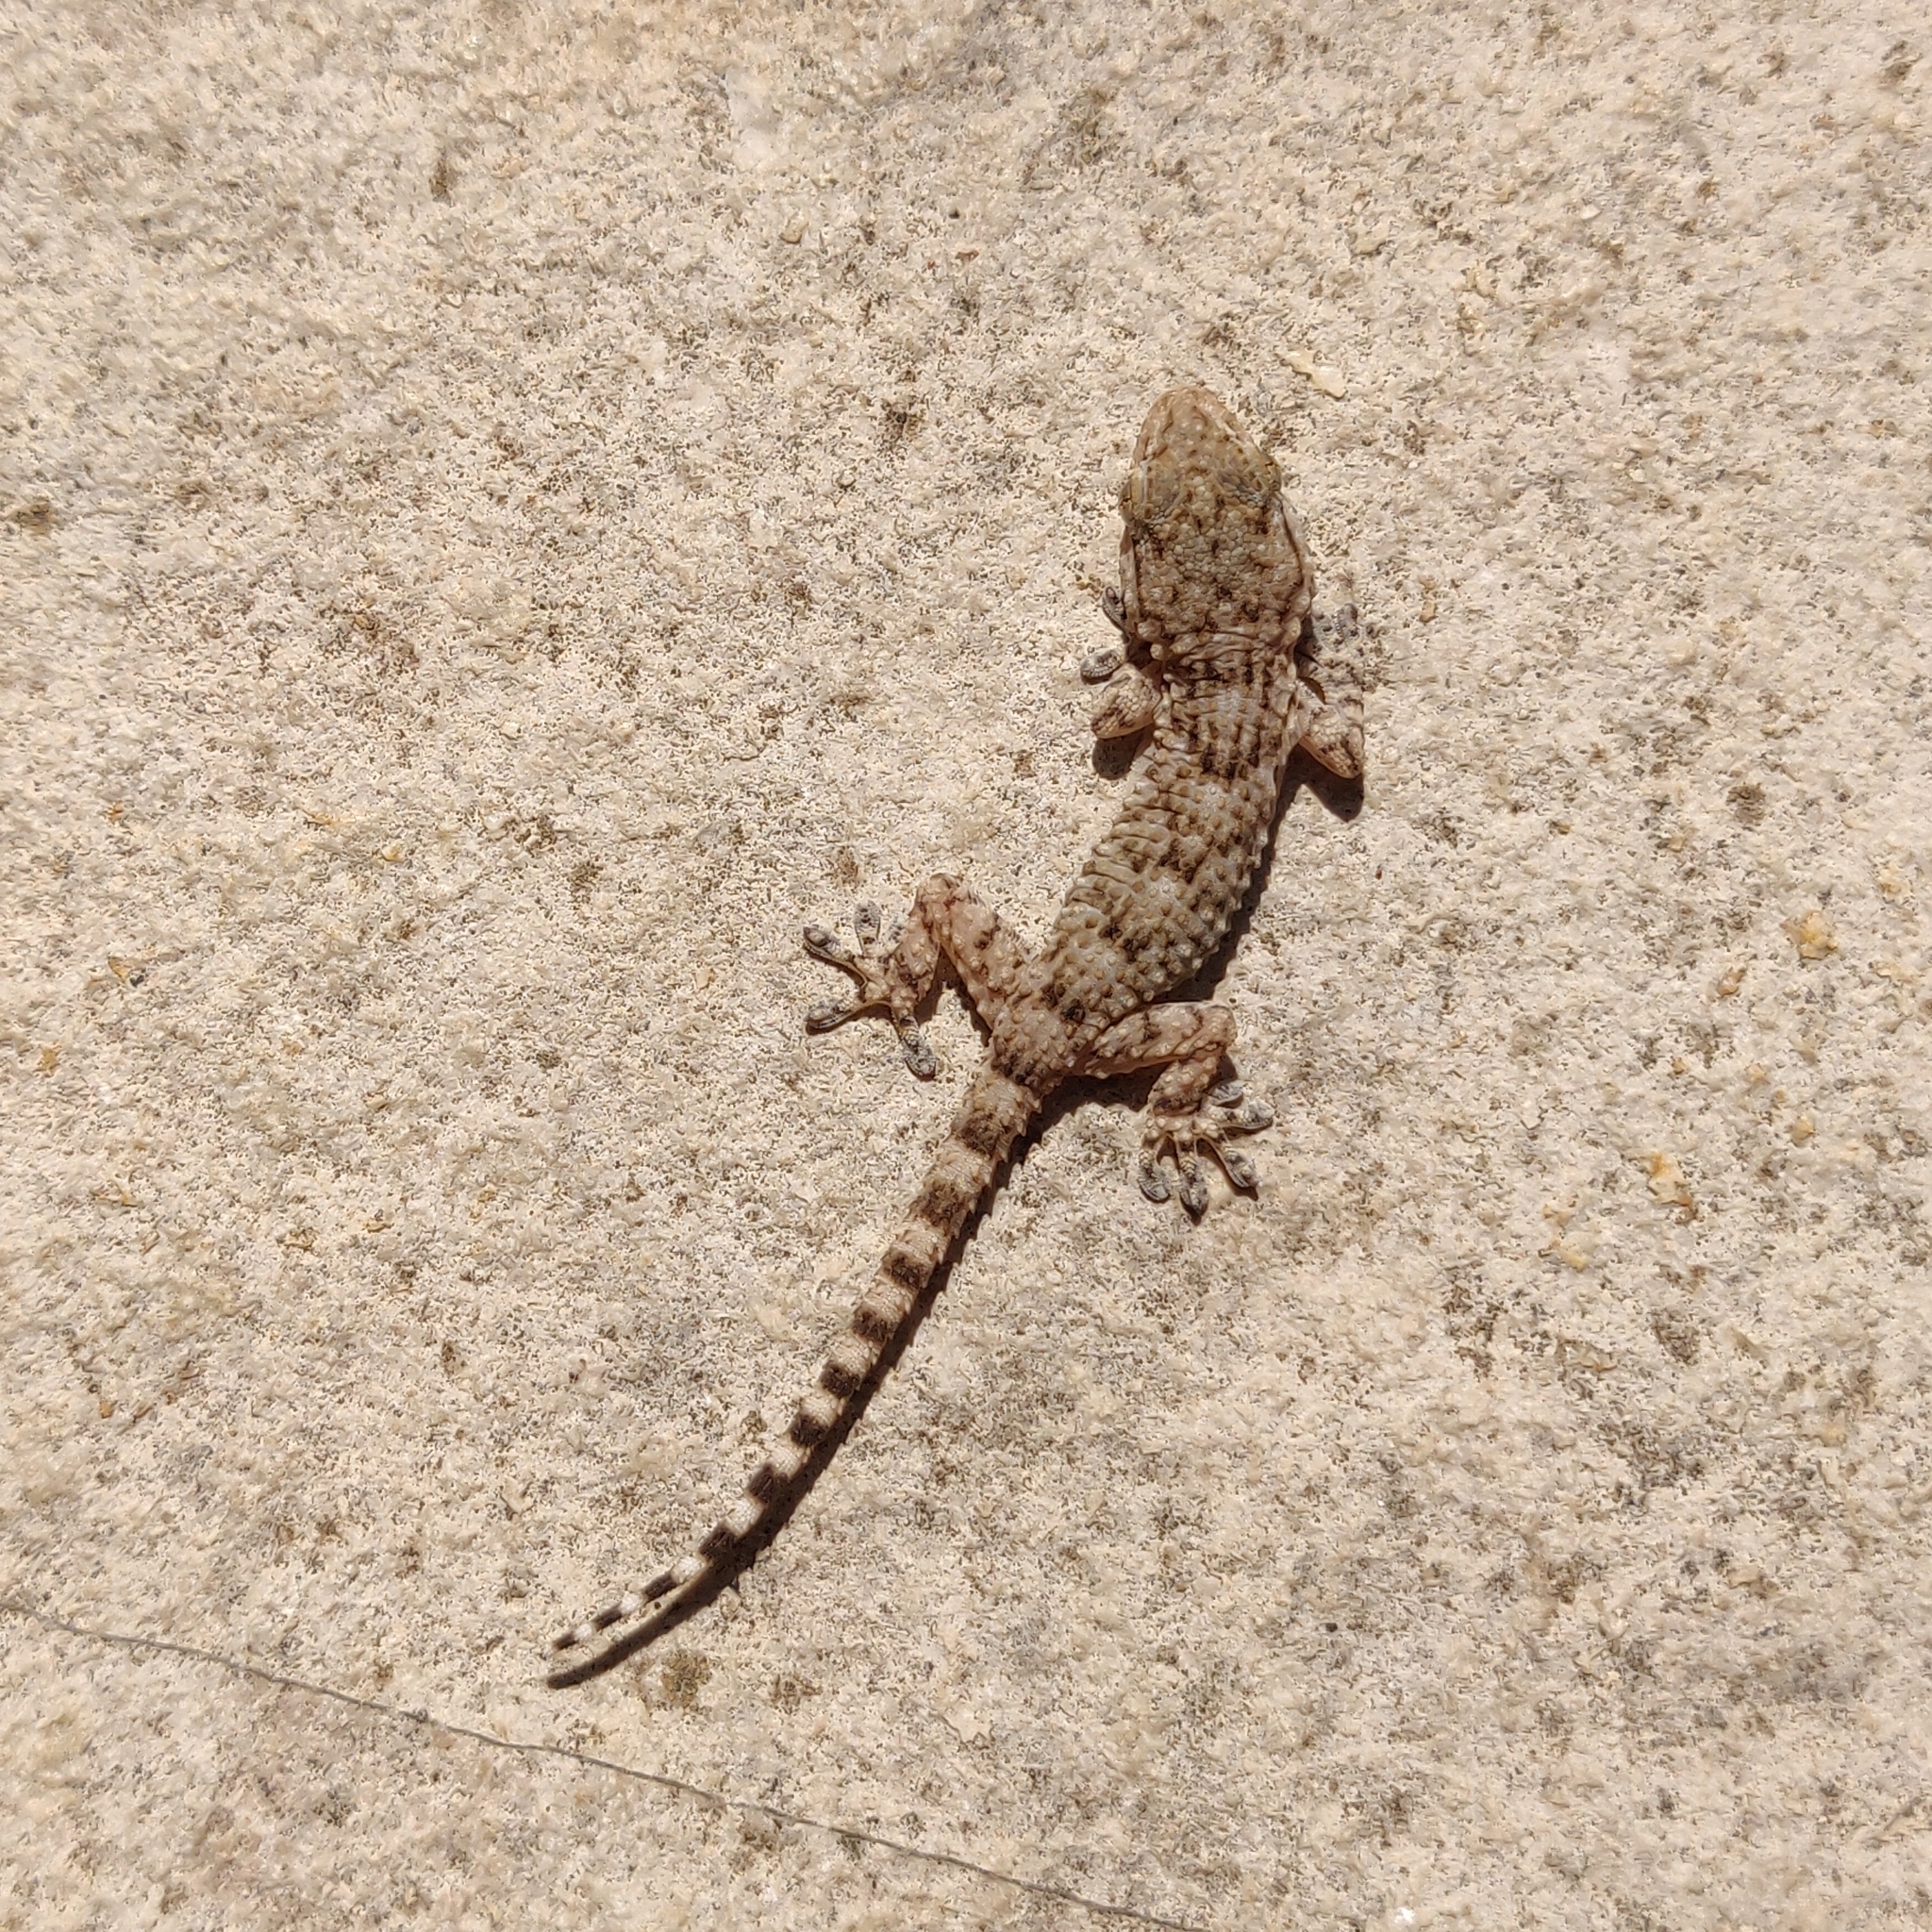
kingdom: Animalia
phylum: Chordata
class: Squamata
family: Phyllodactylidae
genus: Tarentola
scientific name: Tarentola mauritanica
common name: Moorish gecko
